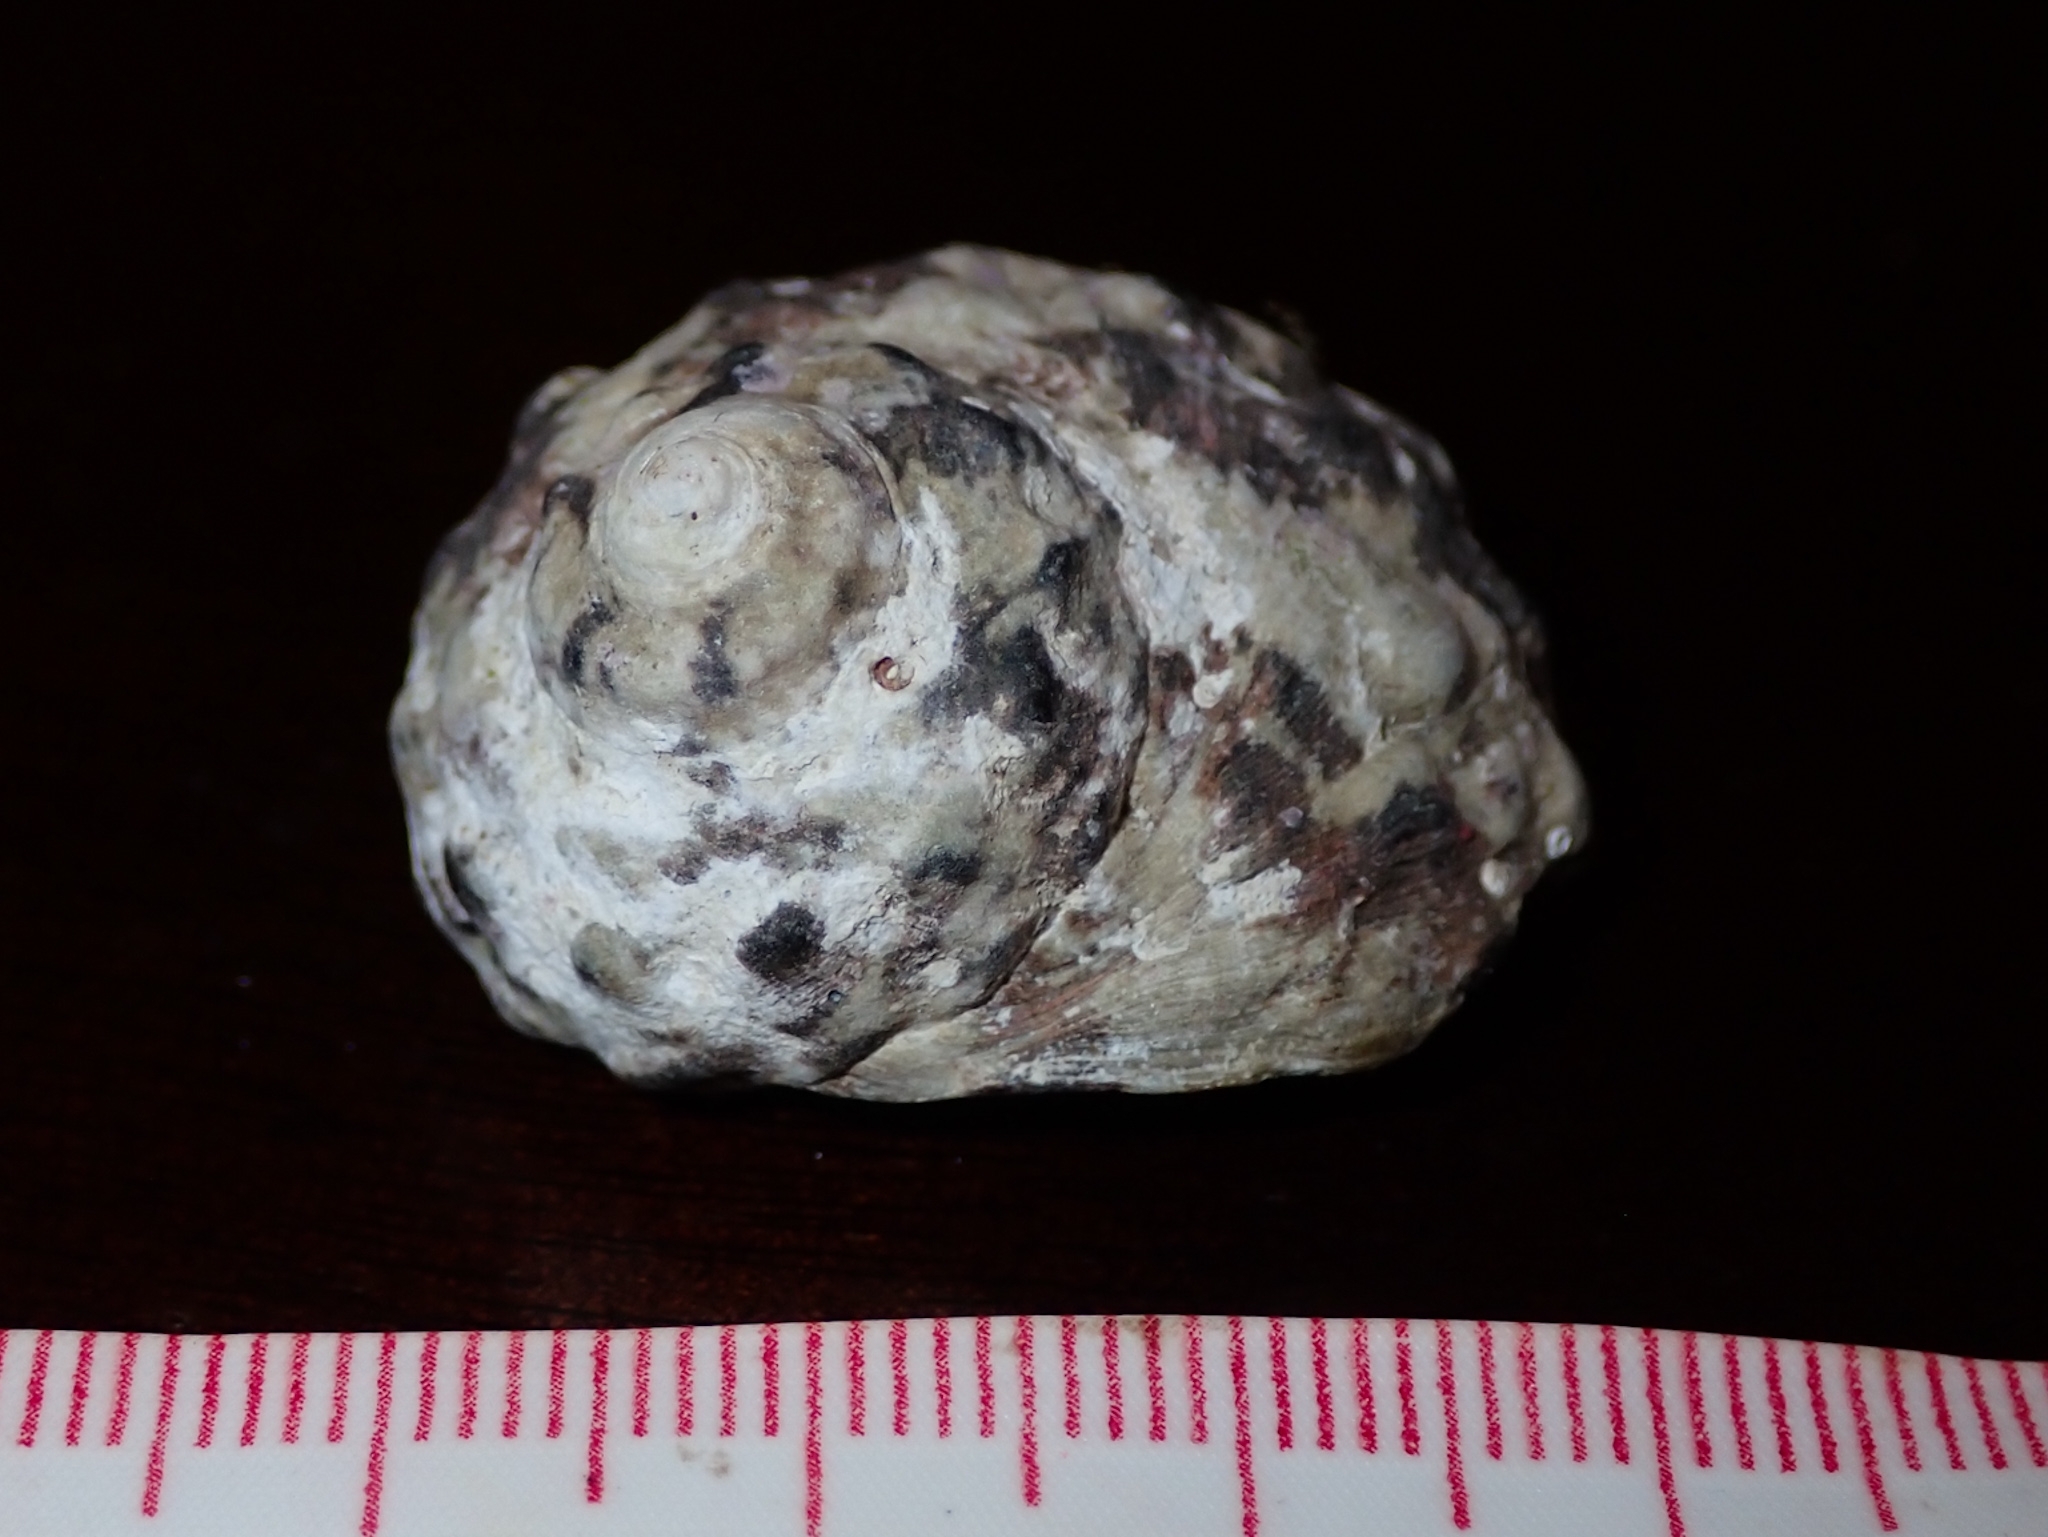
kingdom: Animalia
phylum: Mollusca
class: Gastropoda
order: Trochida
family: Tegulidae
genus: Cittarium
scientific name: Cittarium pica
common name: West indian topshell
